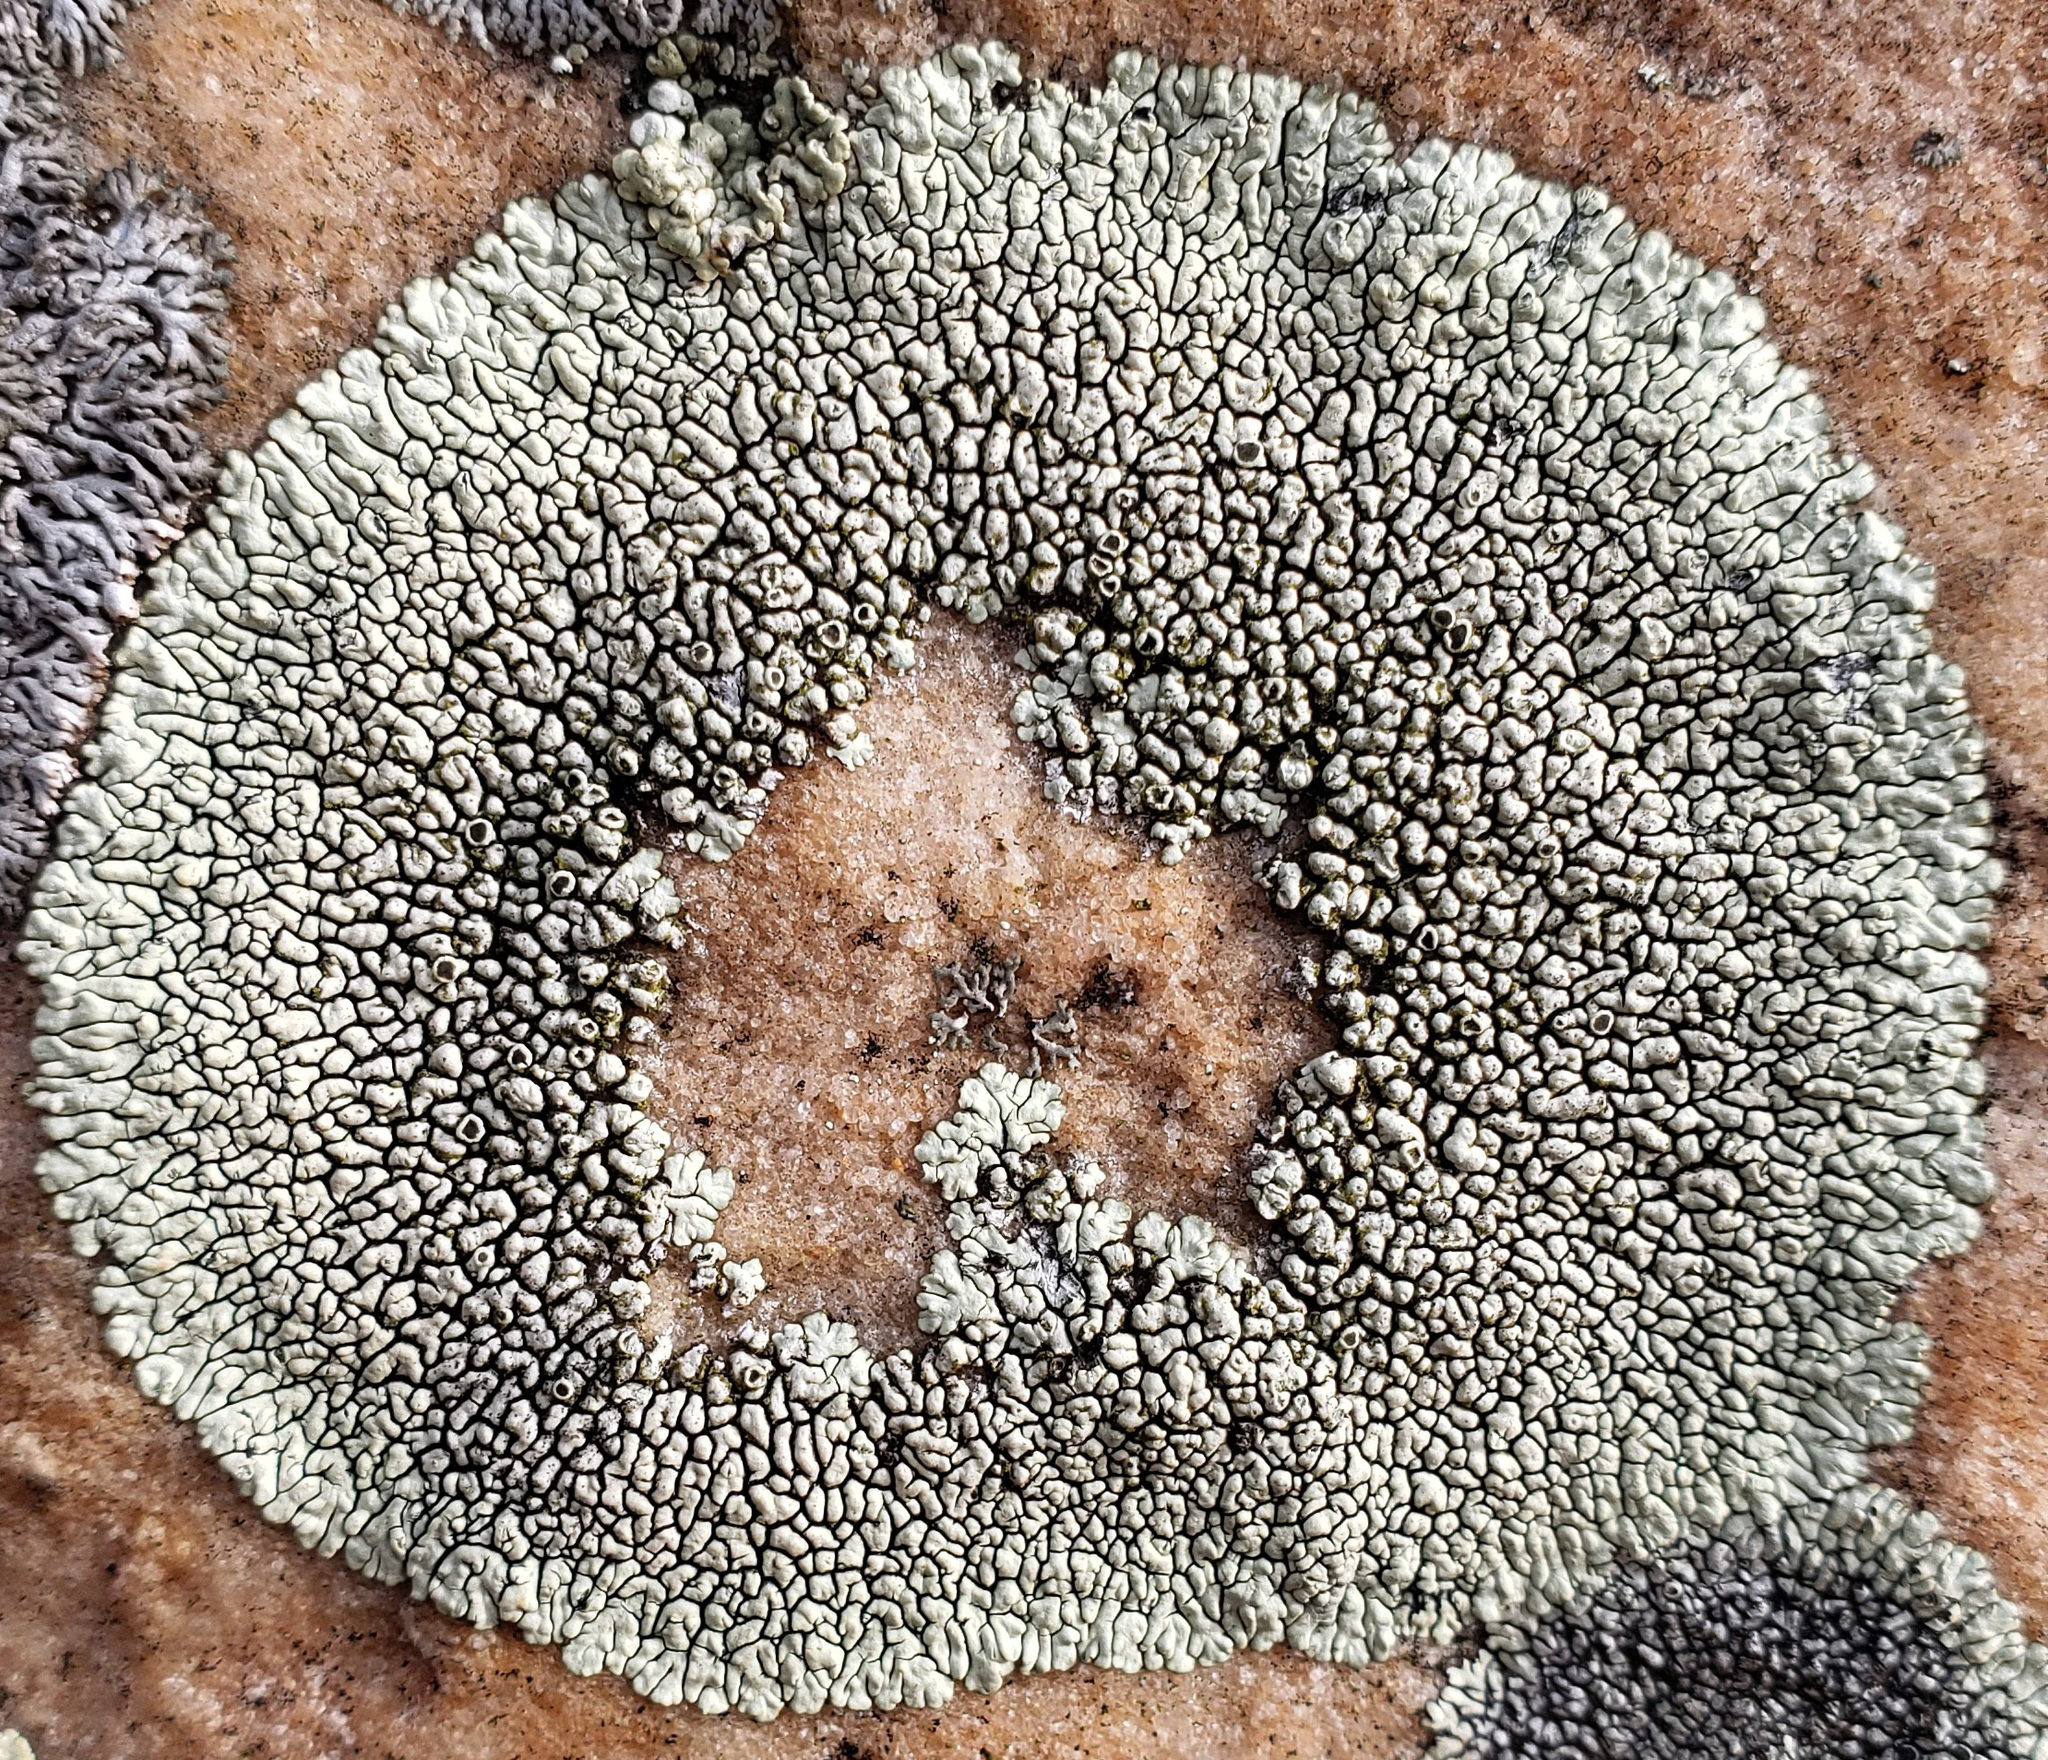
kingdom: Fungi
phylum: Ascomycota
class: Lecanoromycetes
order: Caliciales
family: Caliciaceae
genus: Dimelaena
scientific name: Dimelaena oreina
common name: Golden moonglow lichen
